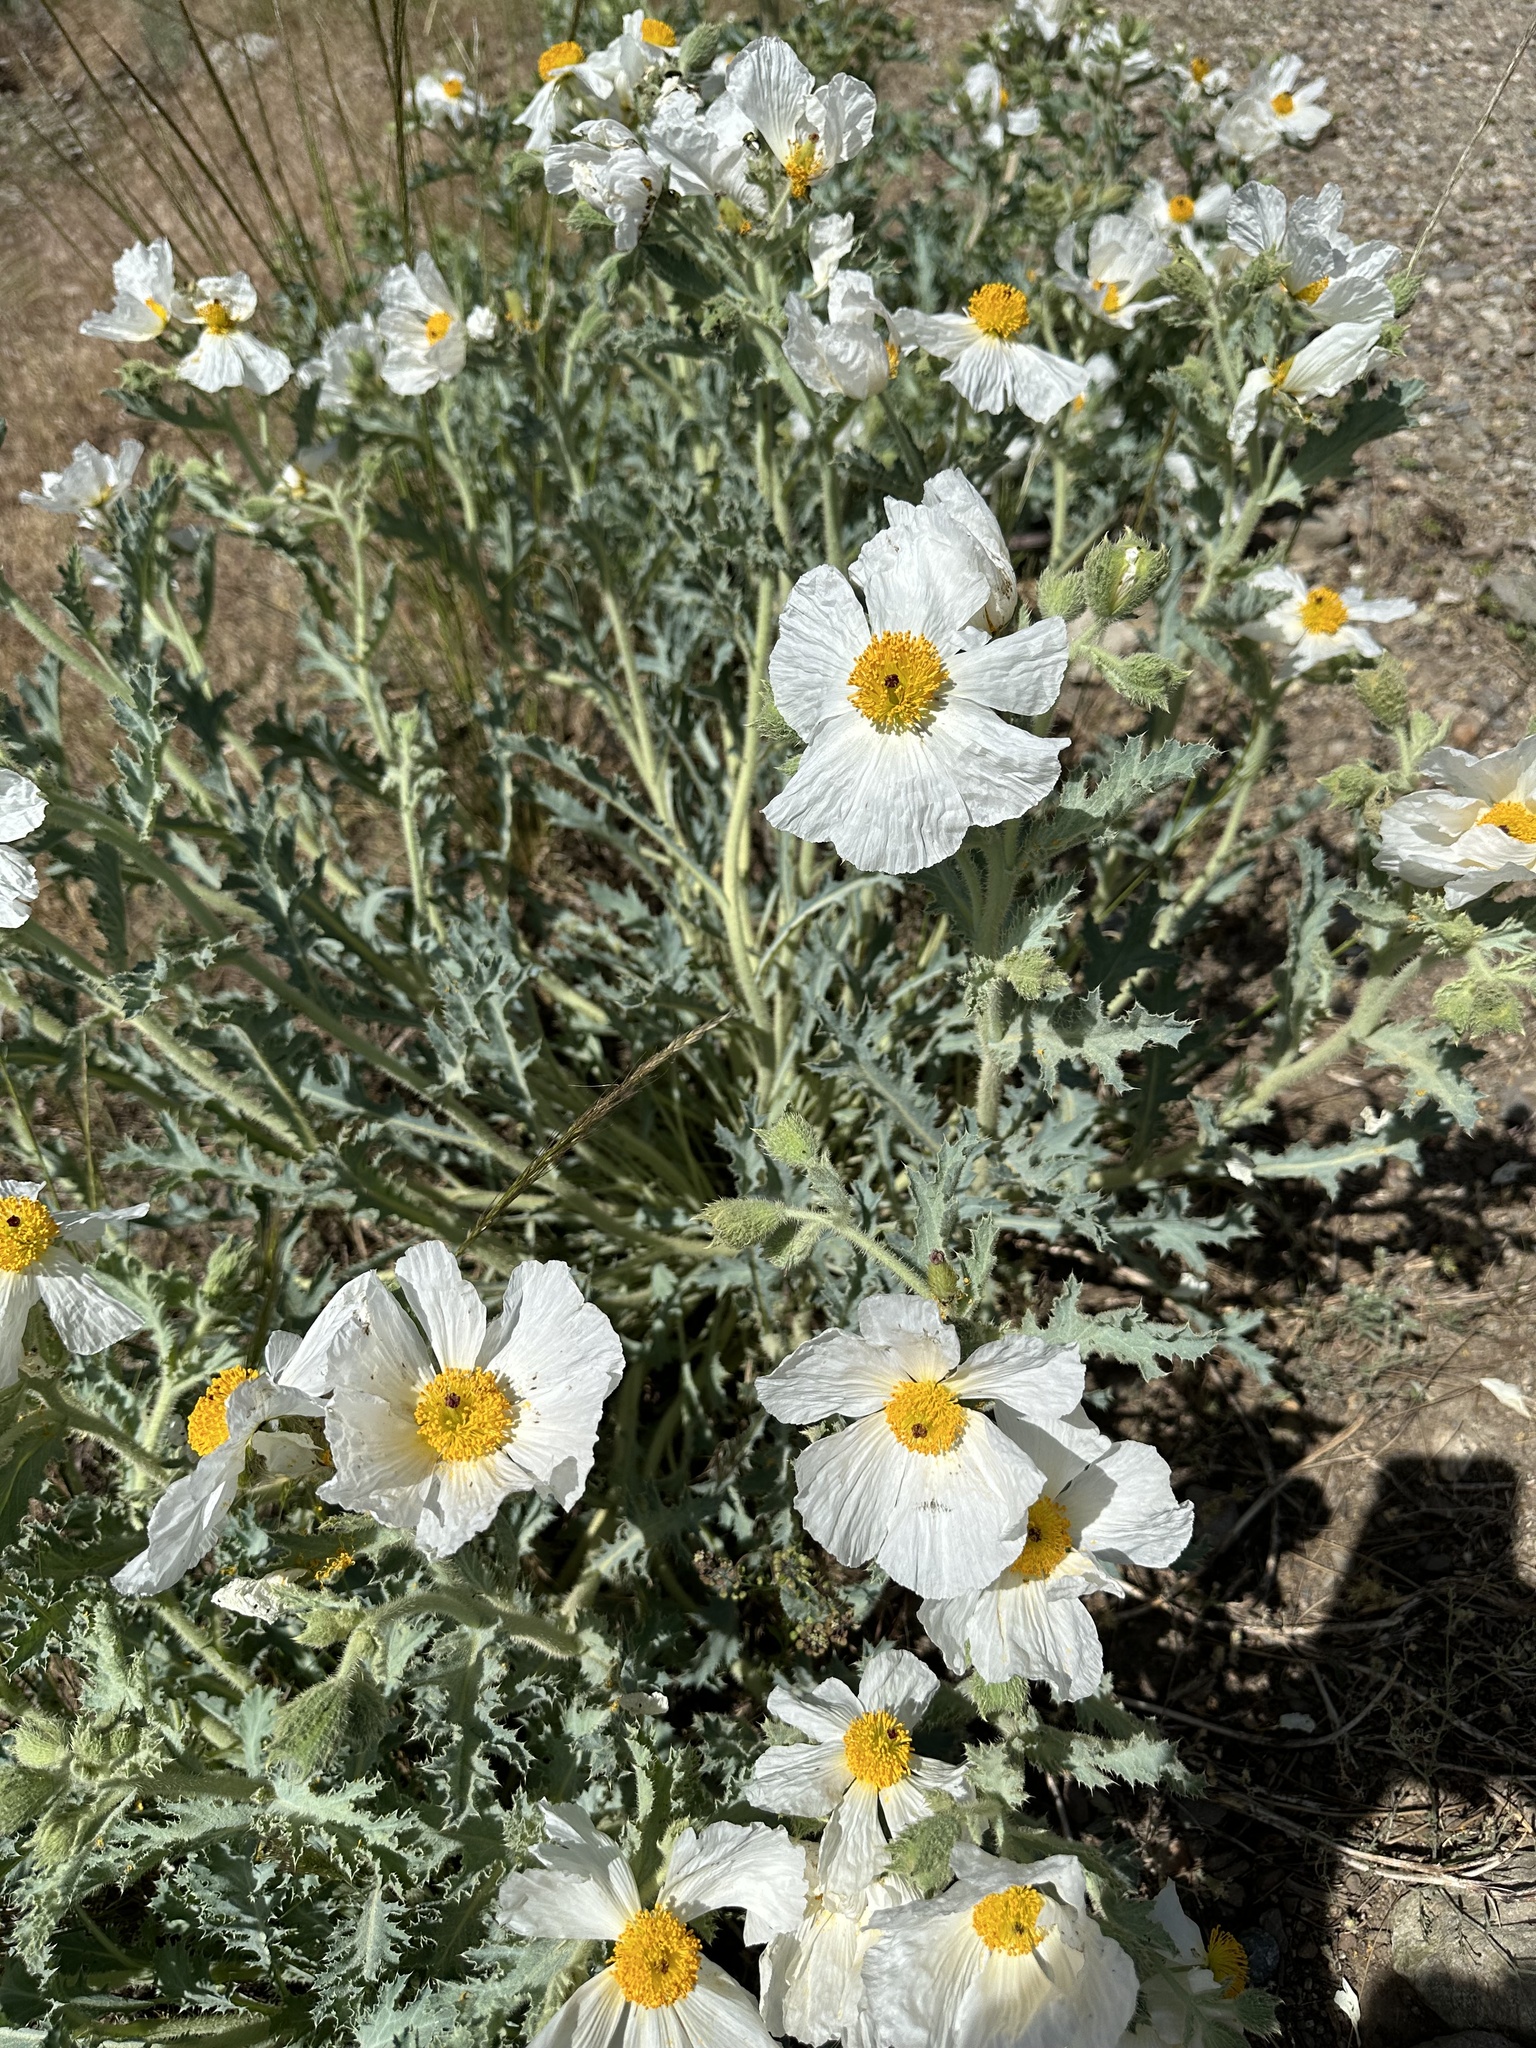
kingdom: Plantae
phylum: Tracheophyta
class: Magnoliopsida
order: Ranunculales
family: Papaveraceae
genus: Argemone
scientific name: Argemone munita
